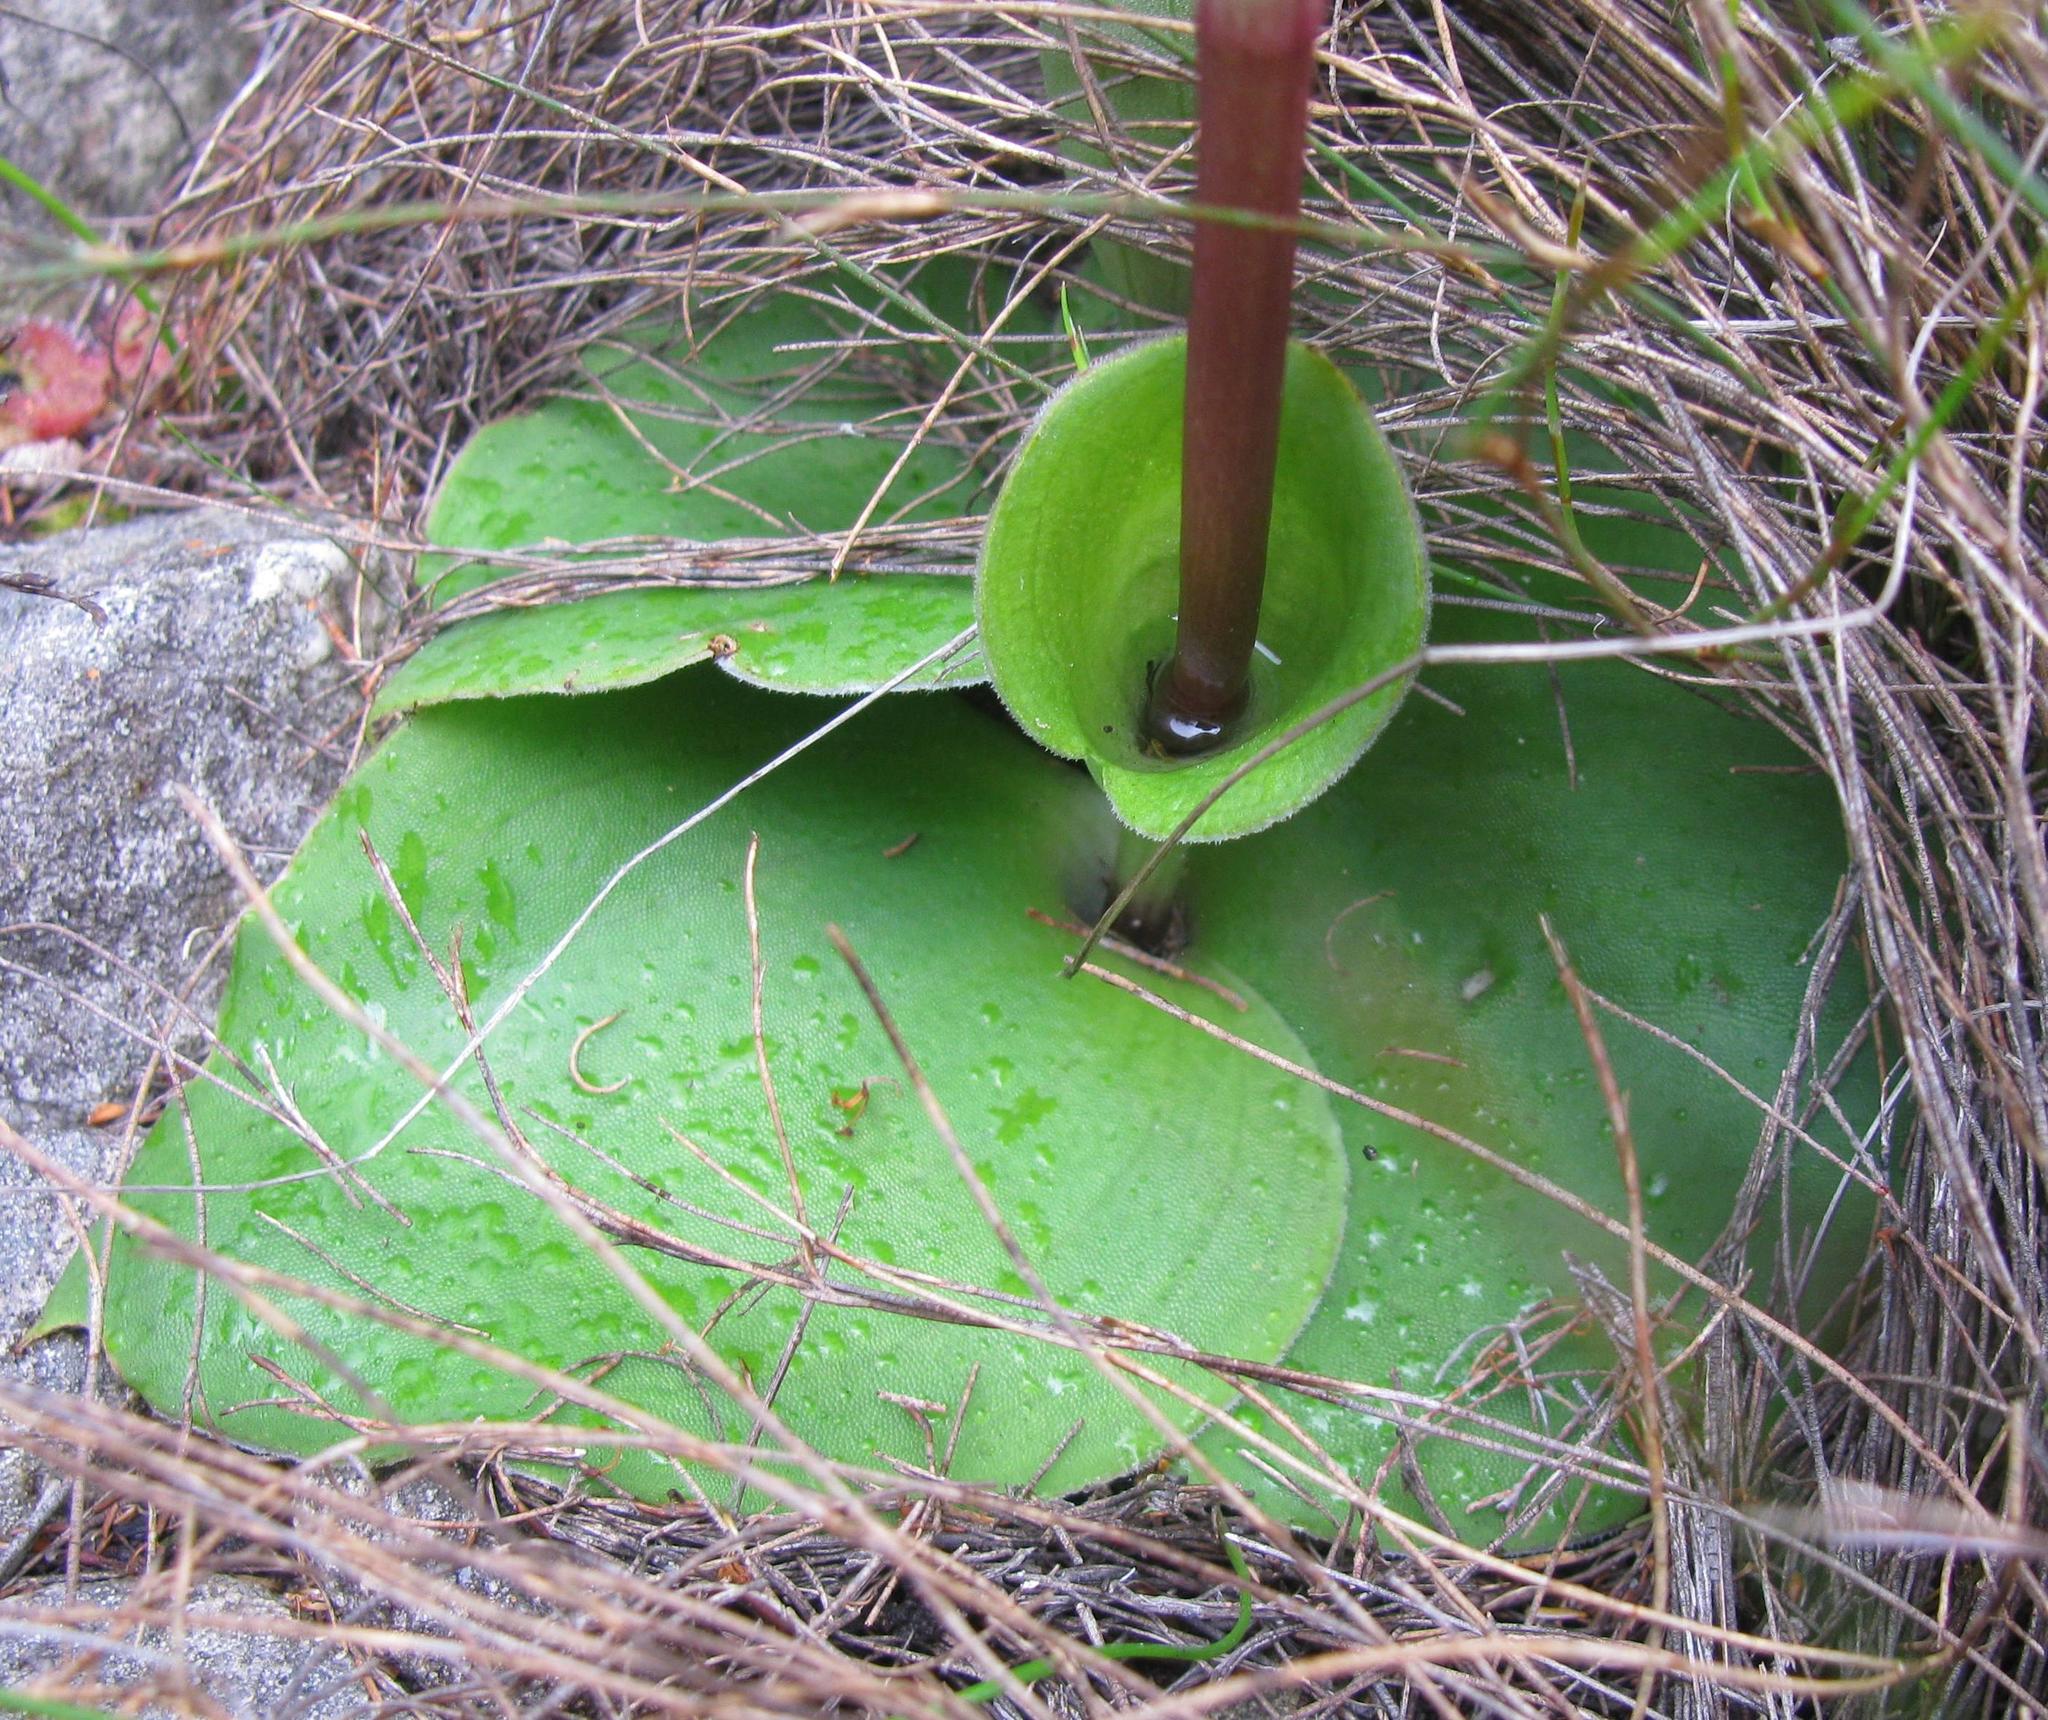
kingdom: Plantae
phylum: Tracheophyta
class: Liliopsida
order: Asparagales
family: Orchidaceae
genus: Satyrium
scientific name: Satyrium bicorne
